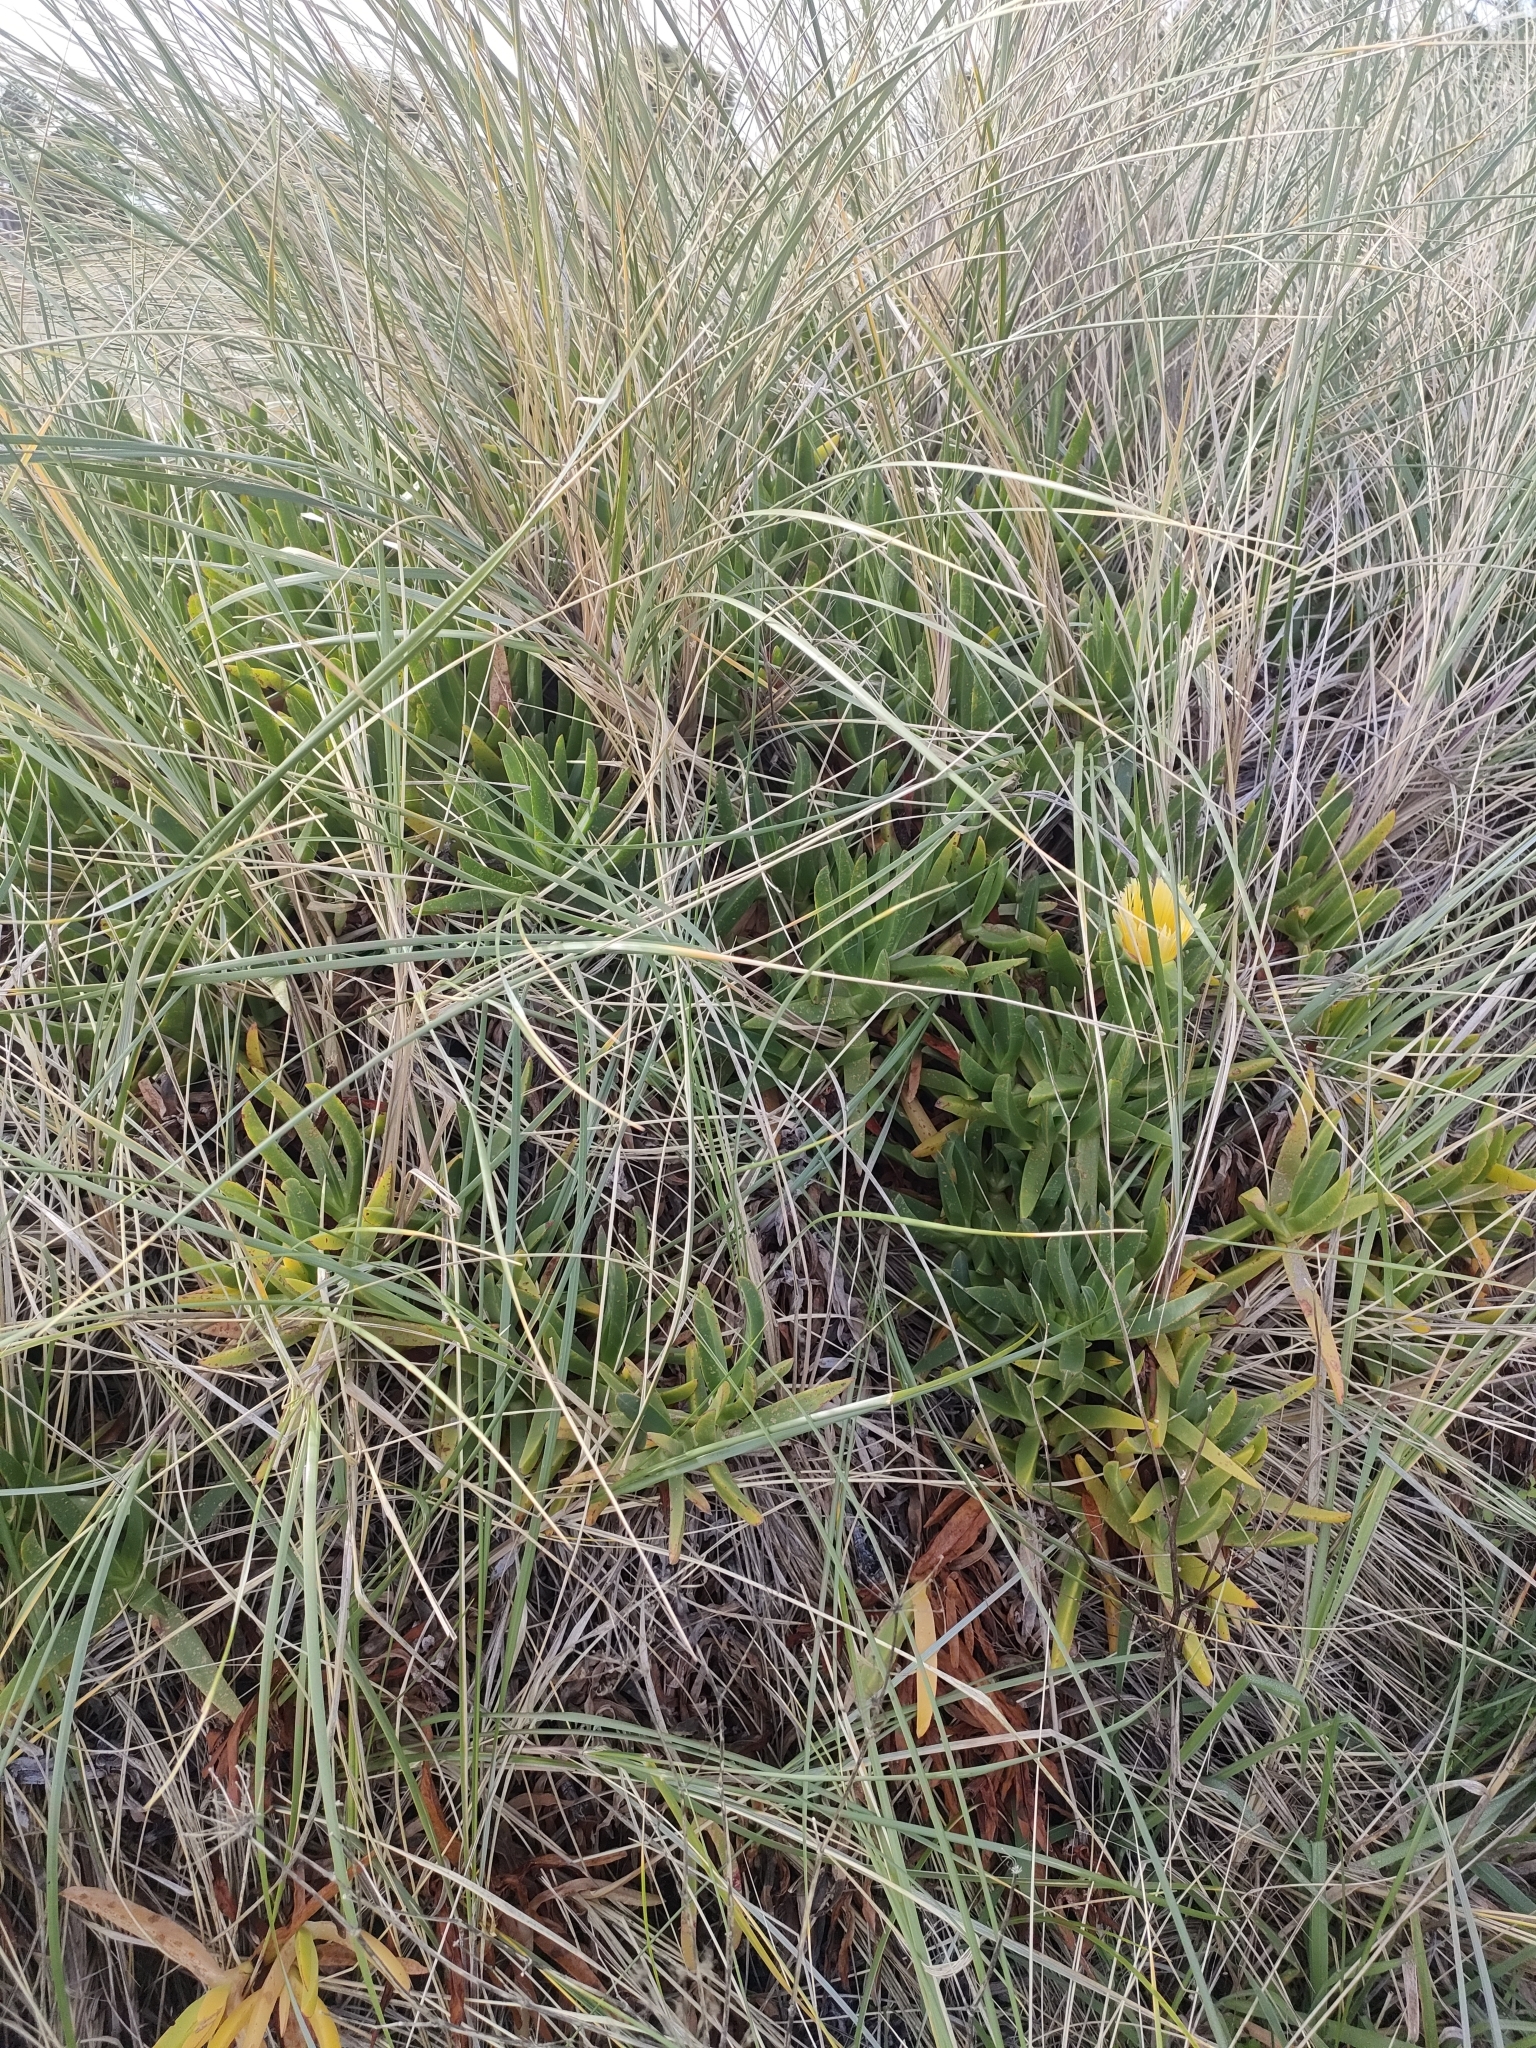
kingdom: Plantae
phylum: Tracheophyta
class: Magnoliopsida
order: Caryophyllales
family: Aizoaceae
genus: Carpobrotus
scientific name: Carpobrotus edulis
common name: Hottentot-fig
